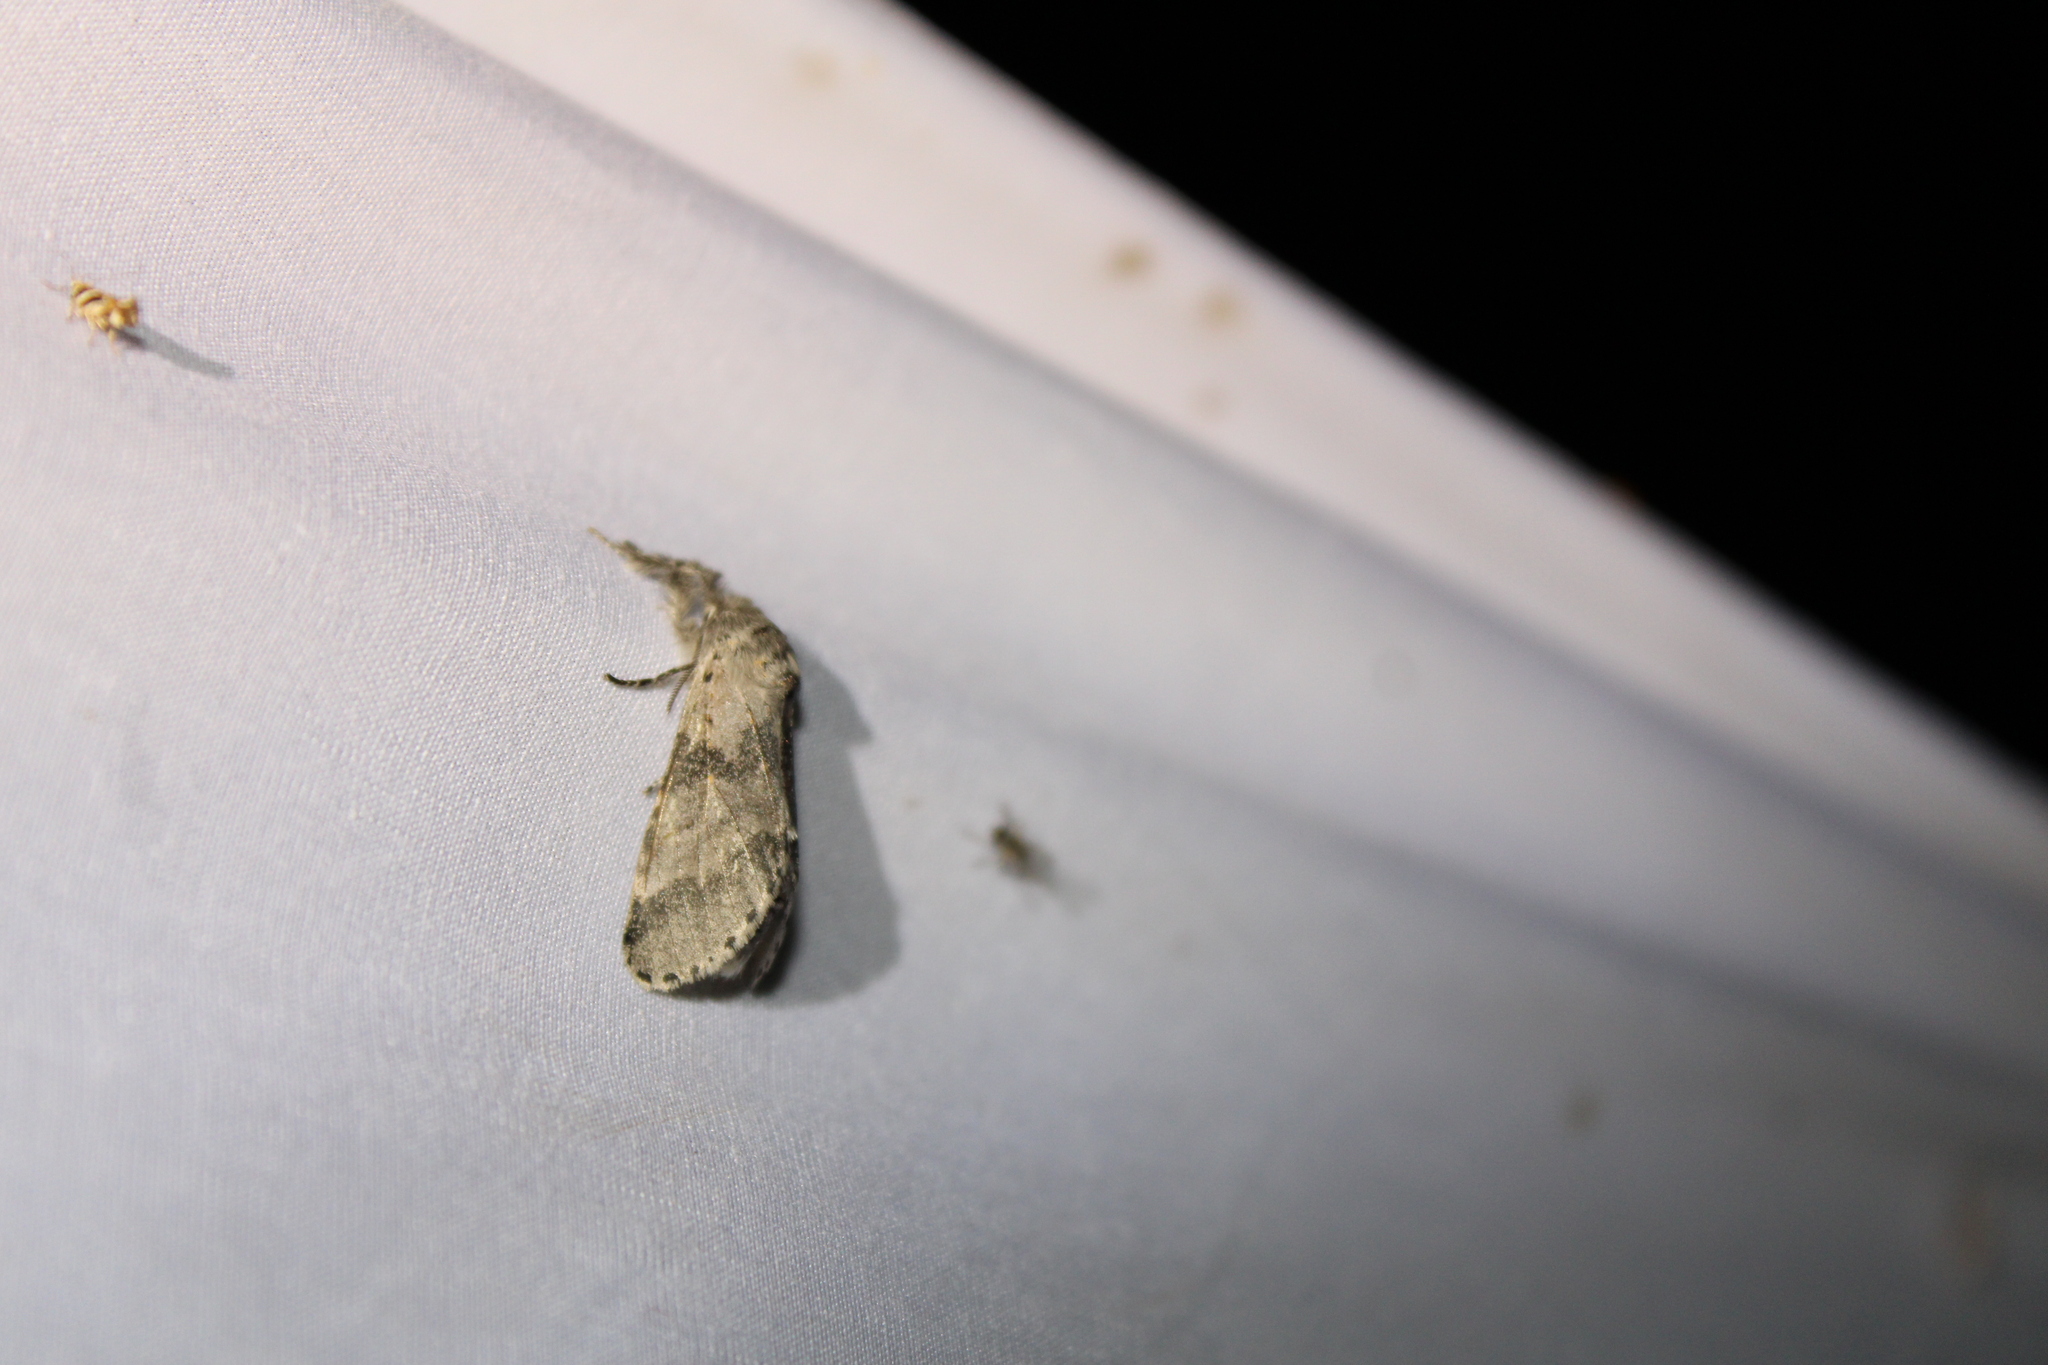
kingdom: Animalia
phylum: Arthropoda
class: Insecta
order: Lepidoptera
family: Notodontidae
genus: Furcula
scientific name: Furcula cinerea
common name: Gray furcula
